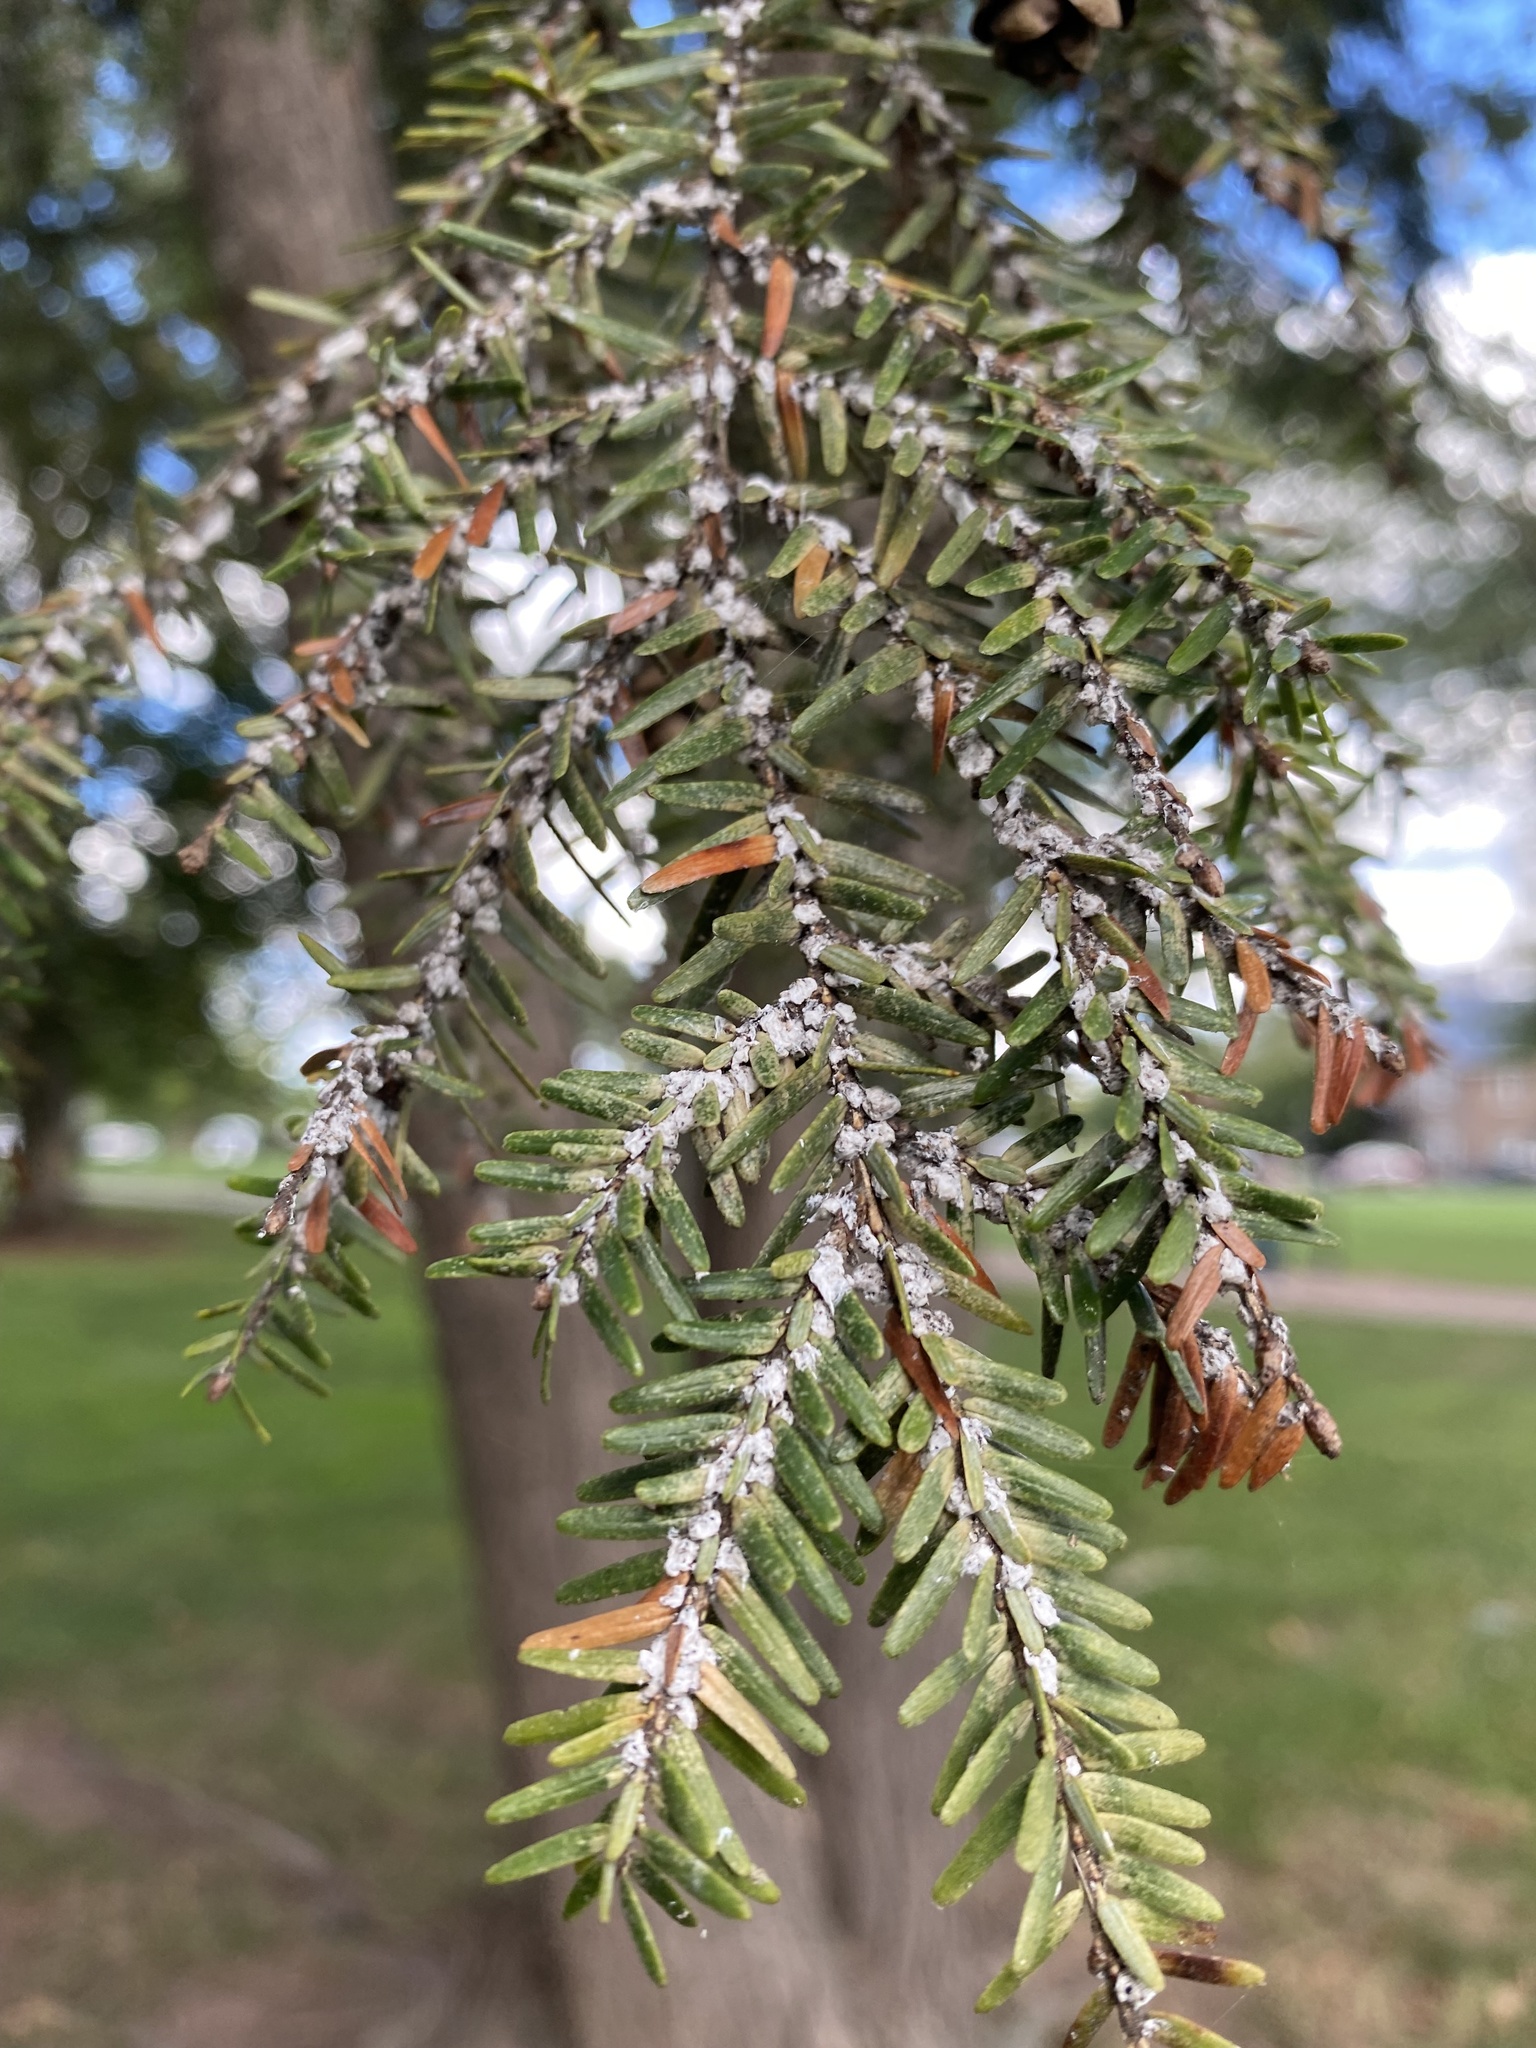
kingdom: Animalia
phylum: Arthropoda
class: Insecta
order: Hemiptera
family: Adelgidae
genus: Adelges
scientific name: Adelges tsugae
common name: Hemlock woolly adelgid
